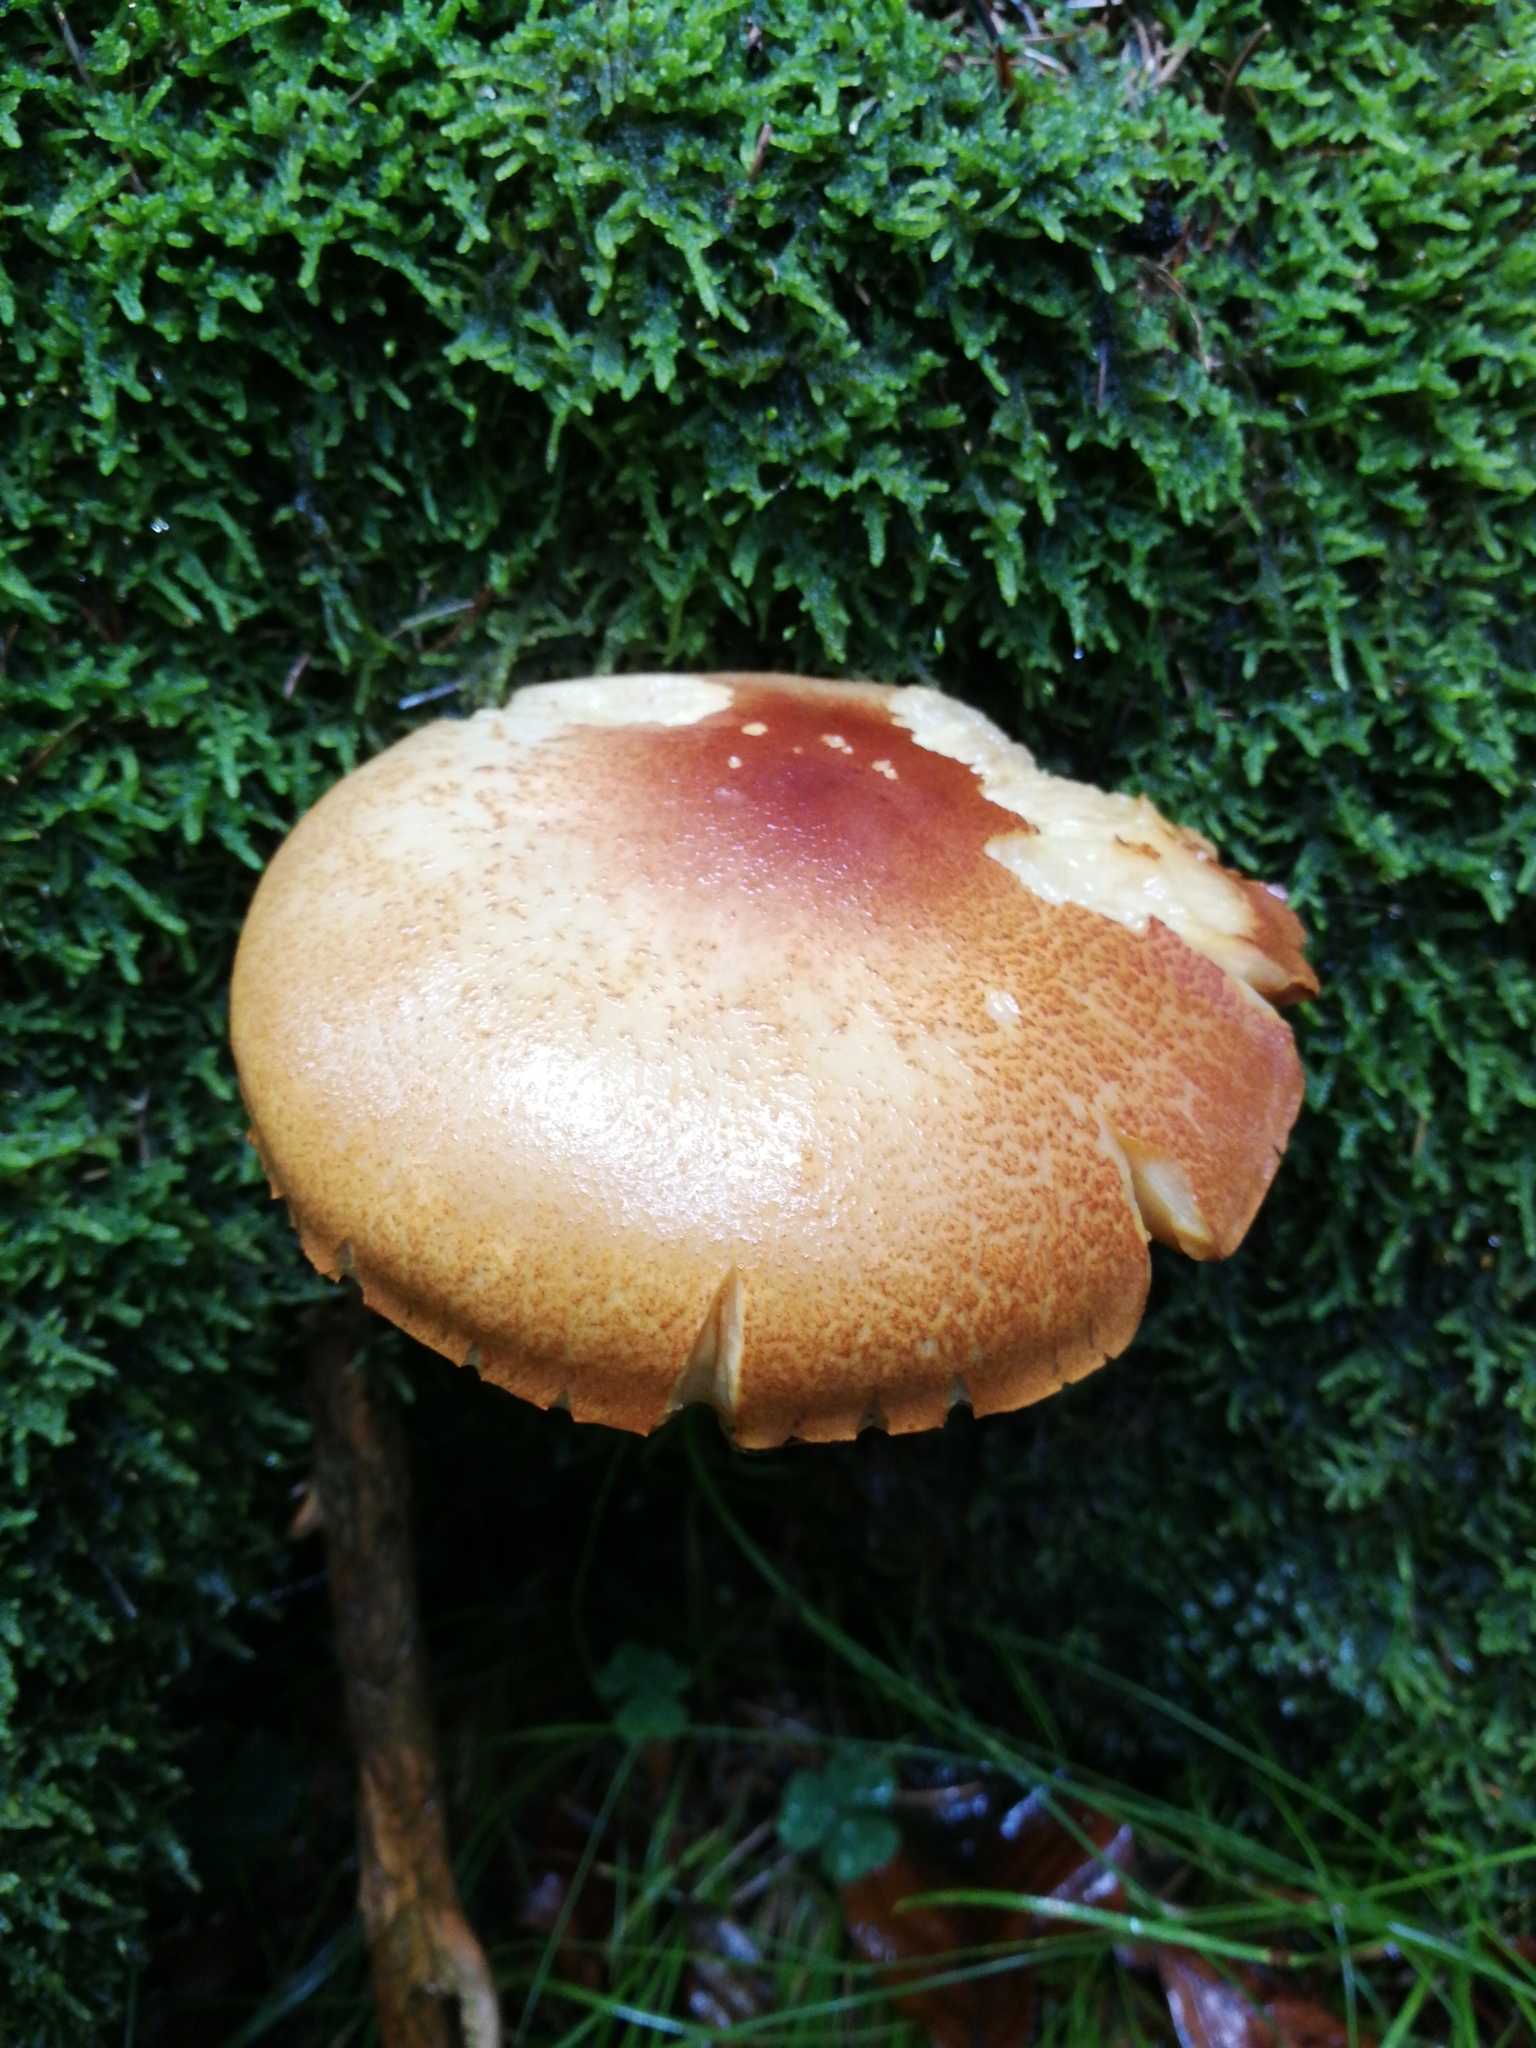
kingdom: Fungi
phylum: Basidiomycota
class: Agaricomycetes
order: Agaricales
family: Tricholomataceae
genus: Tricholomopsis
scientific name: Tricholomopsis rutilans
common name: Plums and custard
